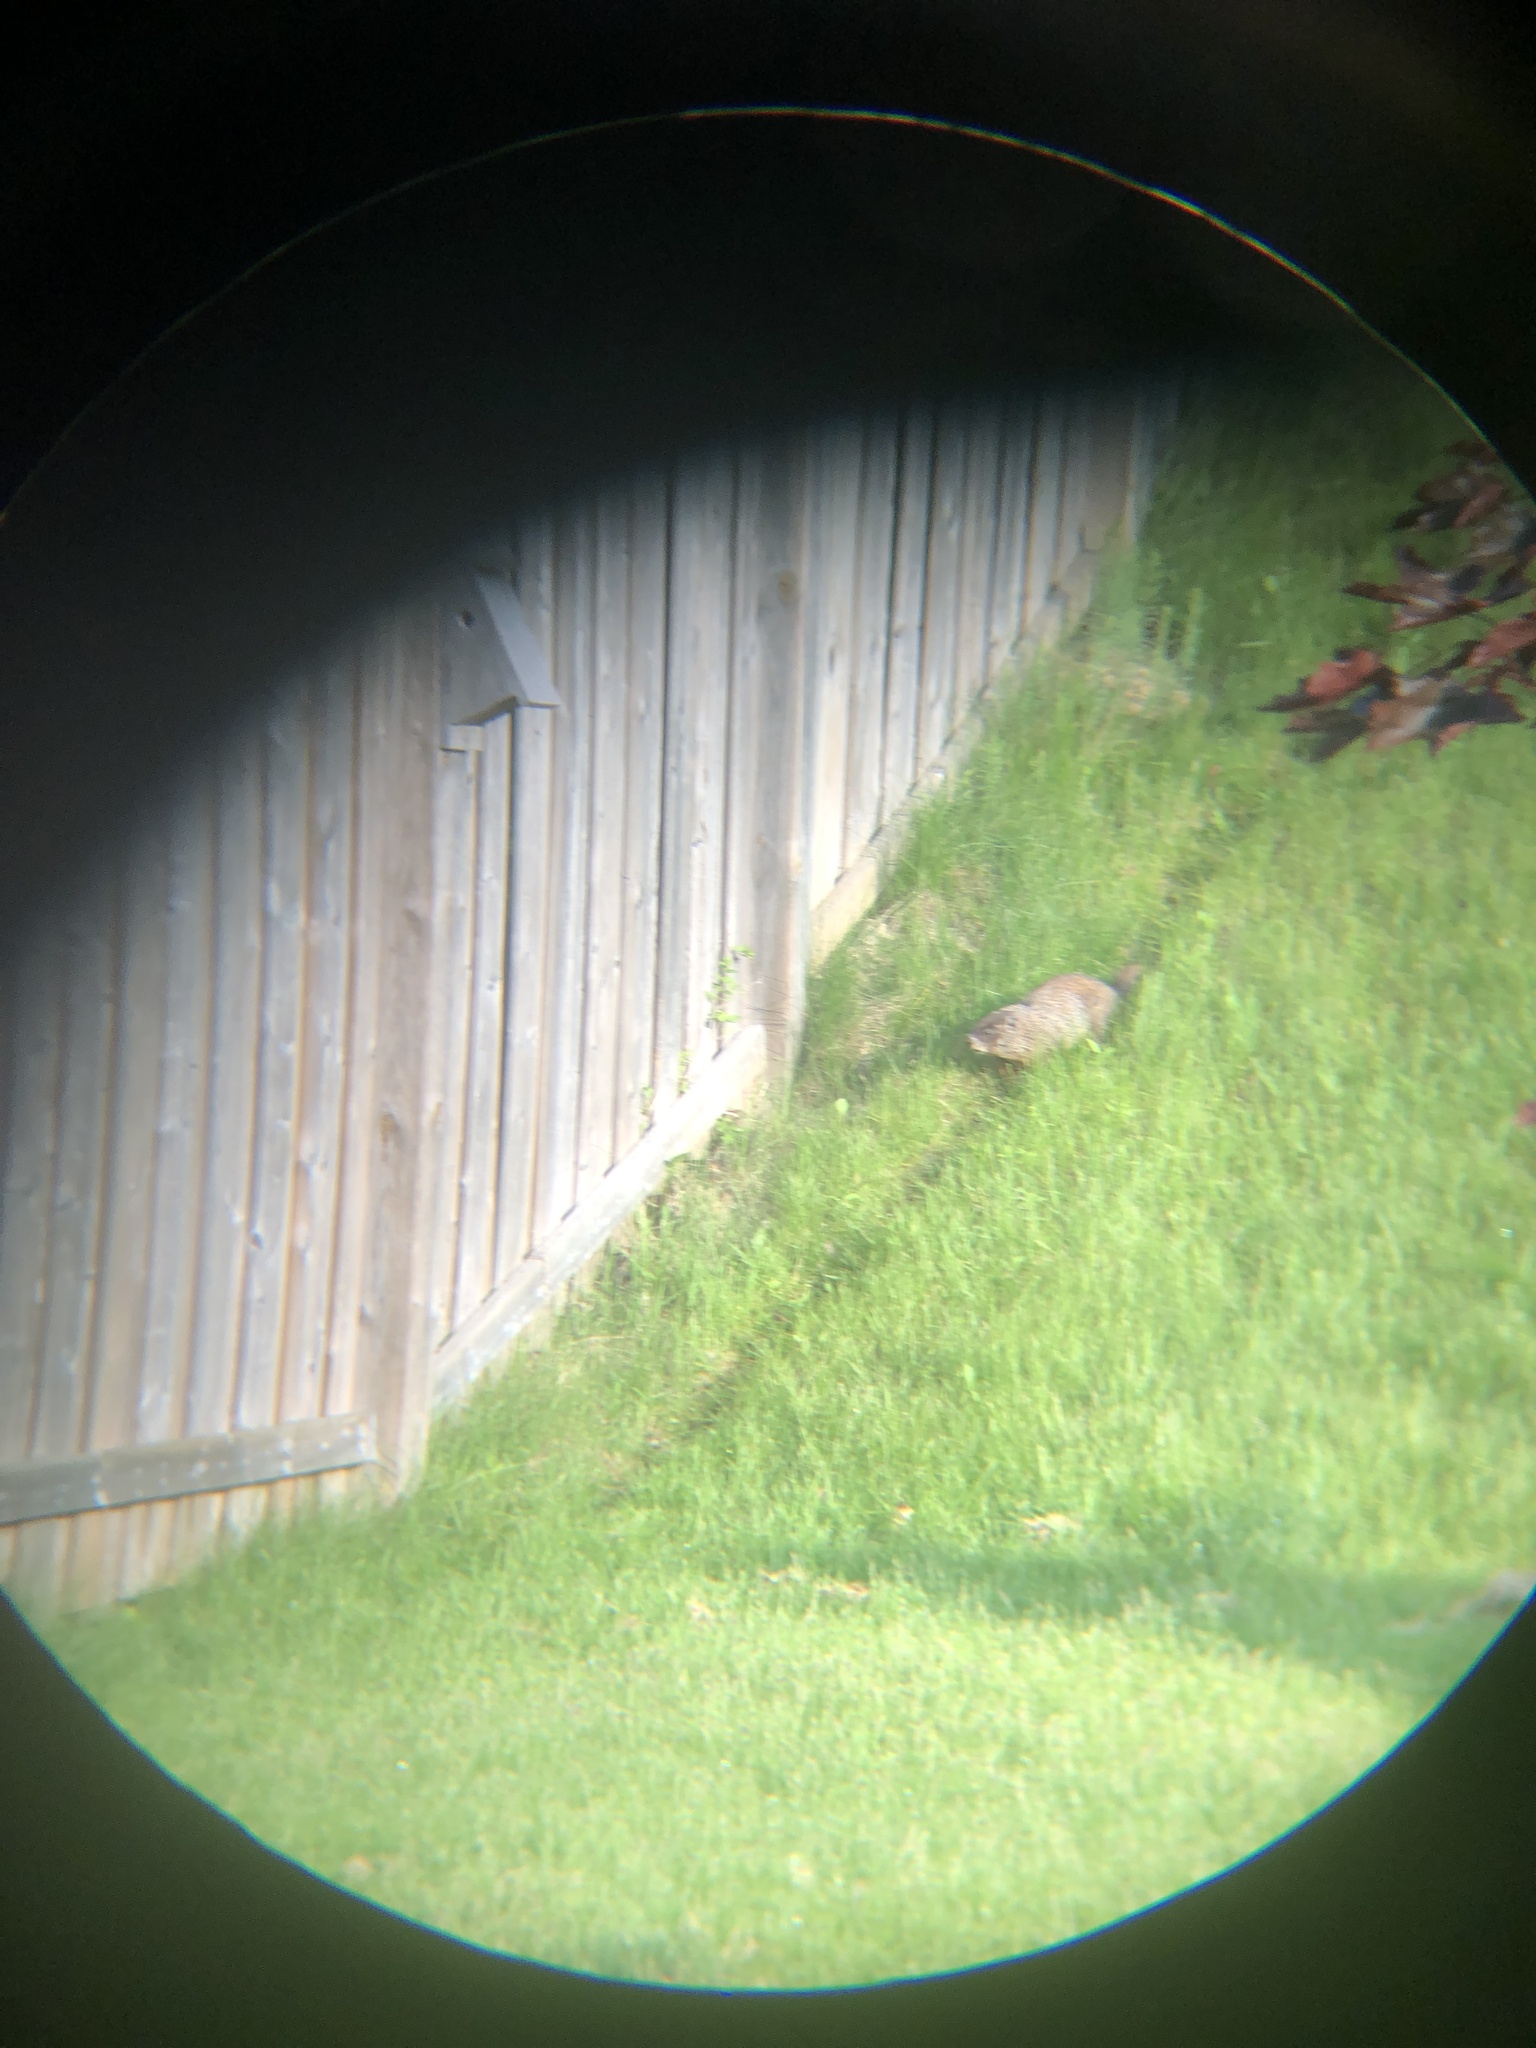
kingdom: Animalia
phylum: Chordata
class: Mammalia
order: Rodentia
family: Sciuridae
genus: Marmota
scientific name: Marmota monax
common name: Groundhog
